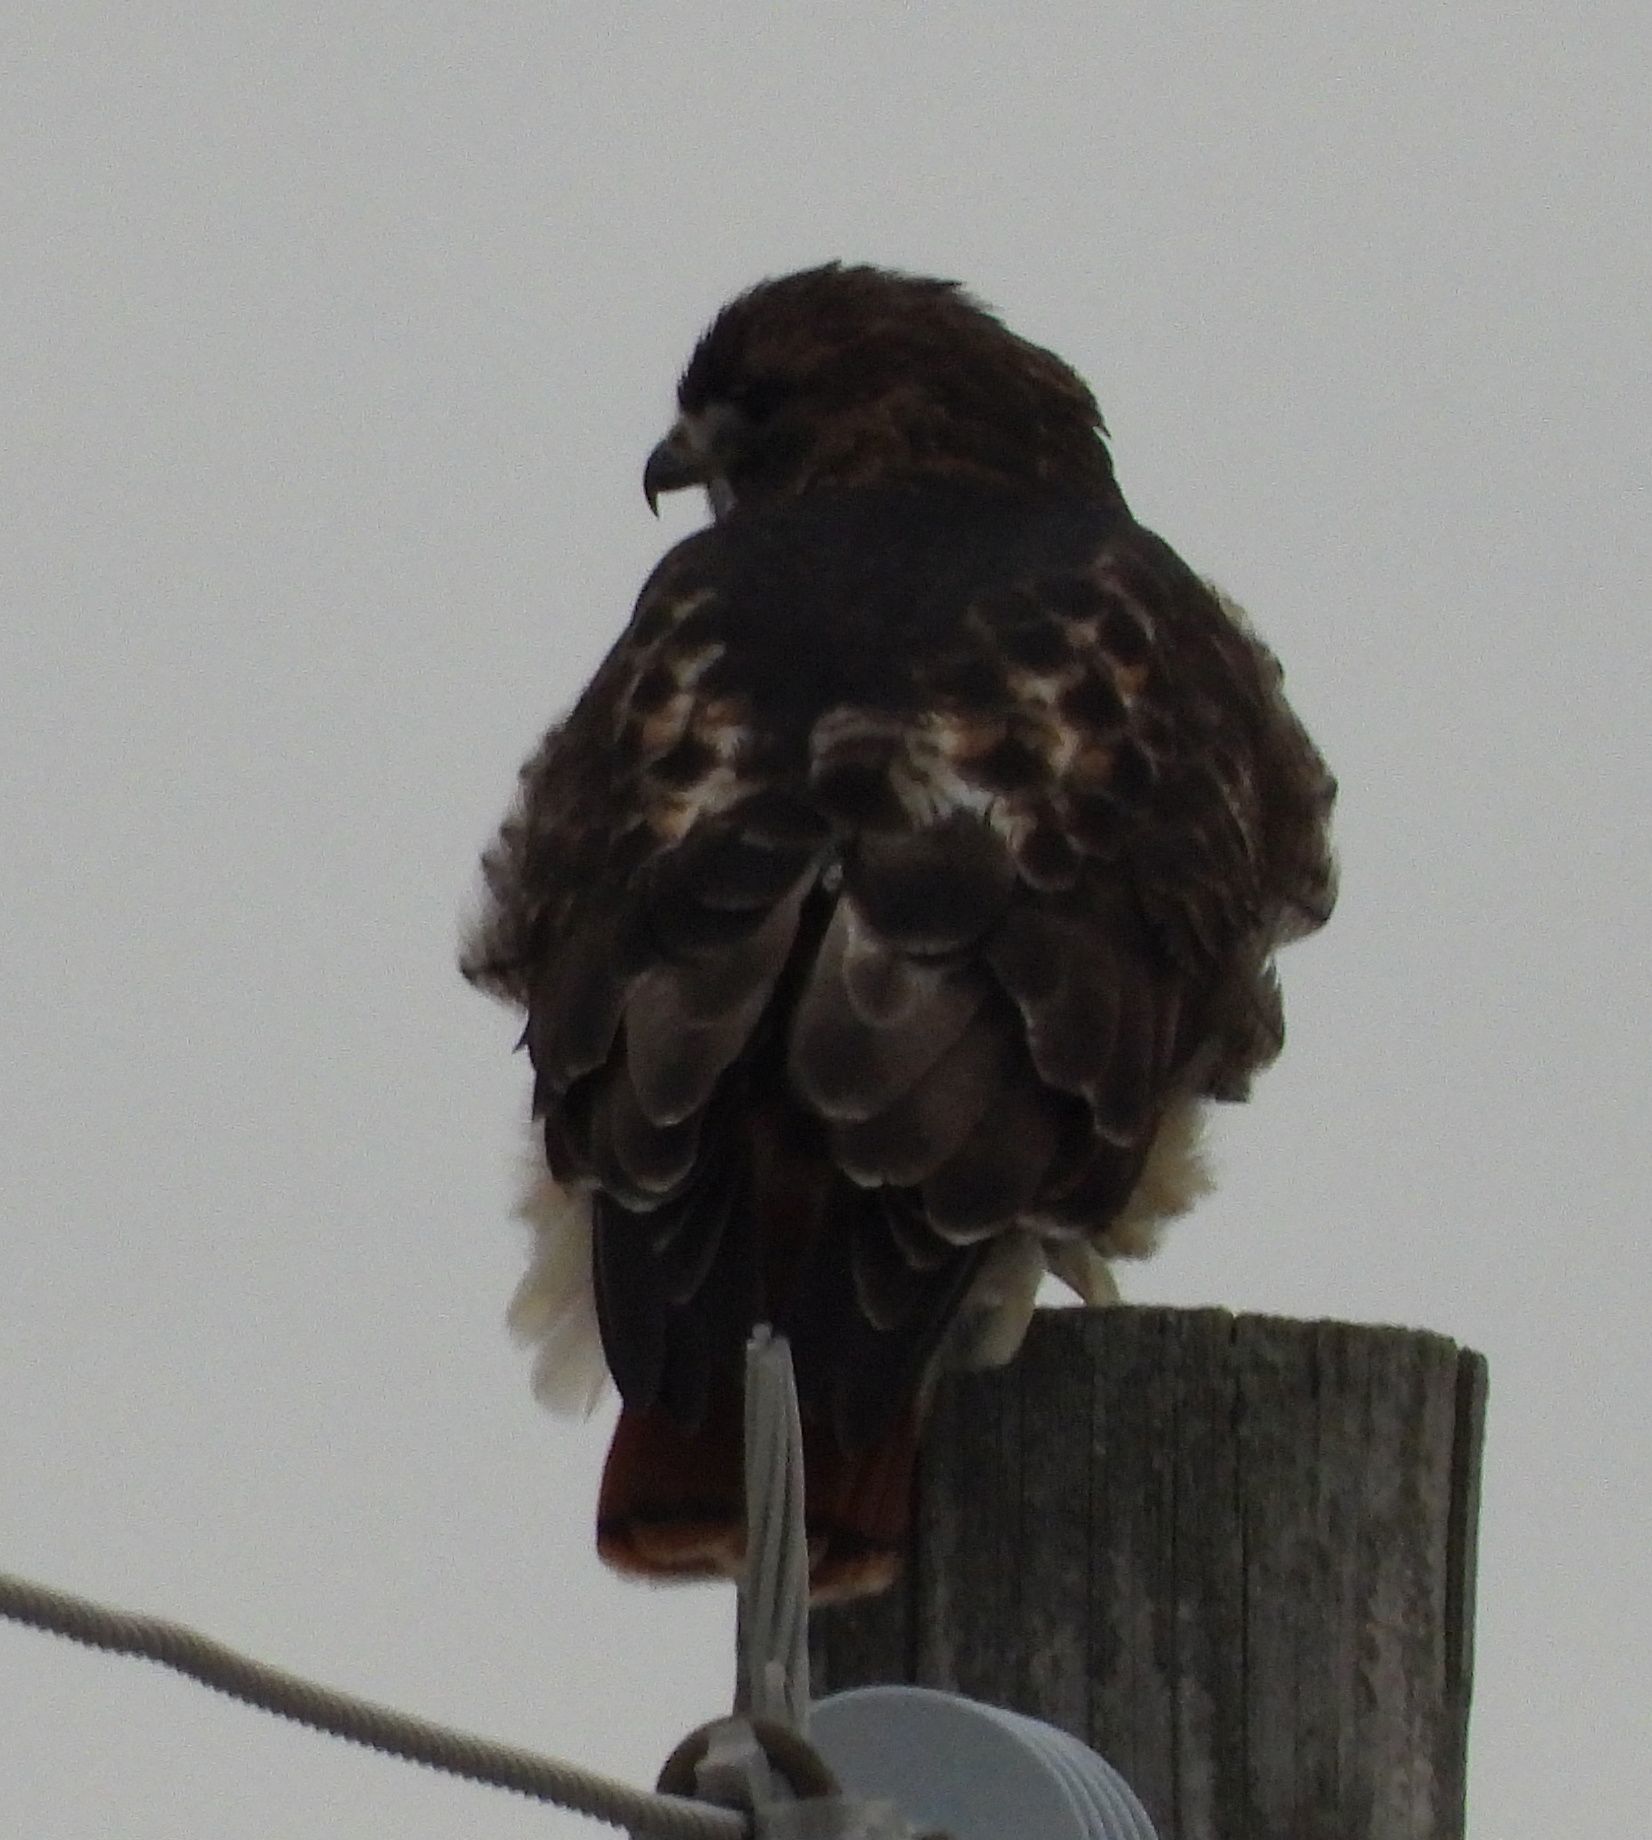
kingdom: Animalia
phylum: Chordata
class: Aves
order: Accipitriformes
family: Accipitridae
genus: Buteo
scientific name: Buteo jamaicensis
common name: Red-tailed hawk
